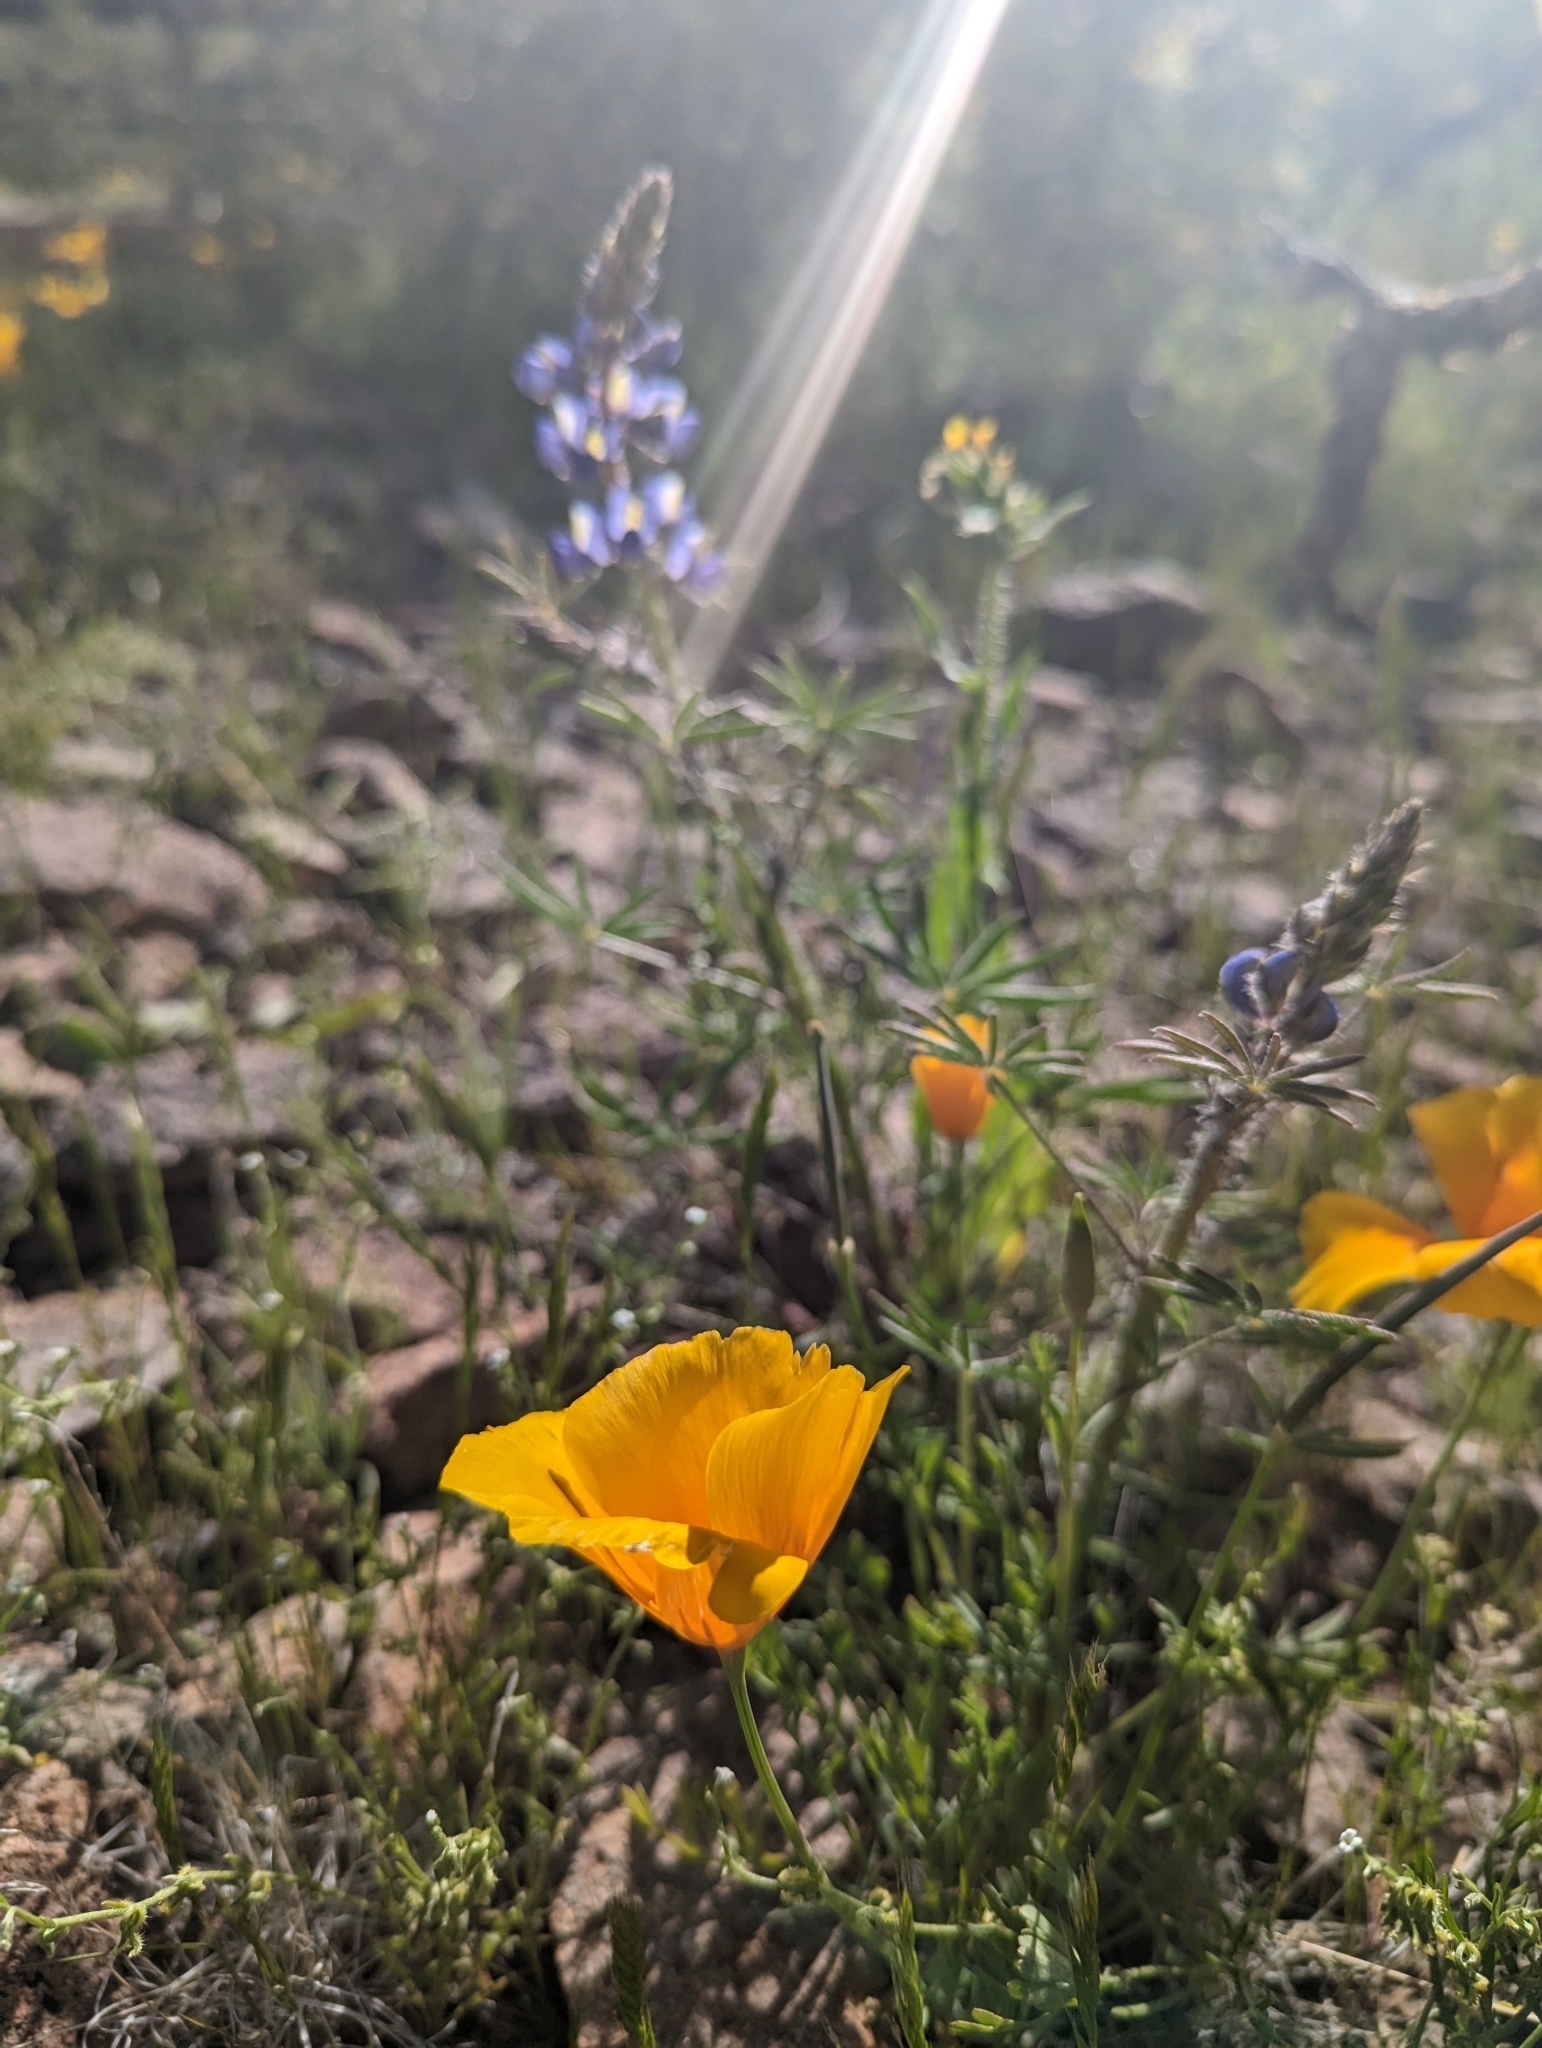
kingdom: Plantae
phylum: Tracheophyta
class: Magnoliopsida
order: Ranunculales
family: Papaveraceae
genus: Eschscholzia
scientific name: Eschscholzia californica
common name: California poppy
